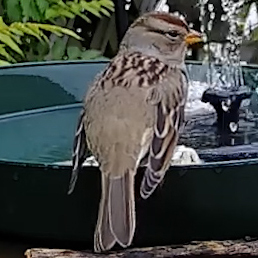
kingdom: Animalia
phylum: Chordata
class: Aves
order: Passeriformes
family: Passerellidae
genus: Zonotrichia
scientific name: Zonotrichia leucophrys
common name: White-crowned sparrow
